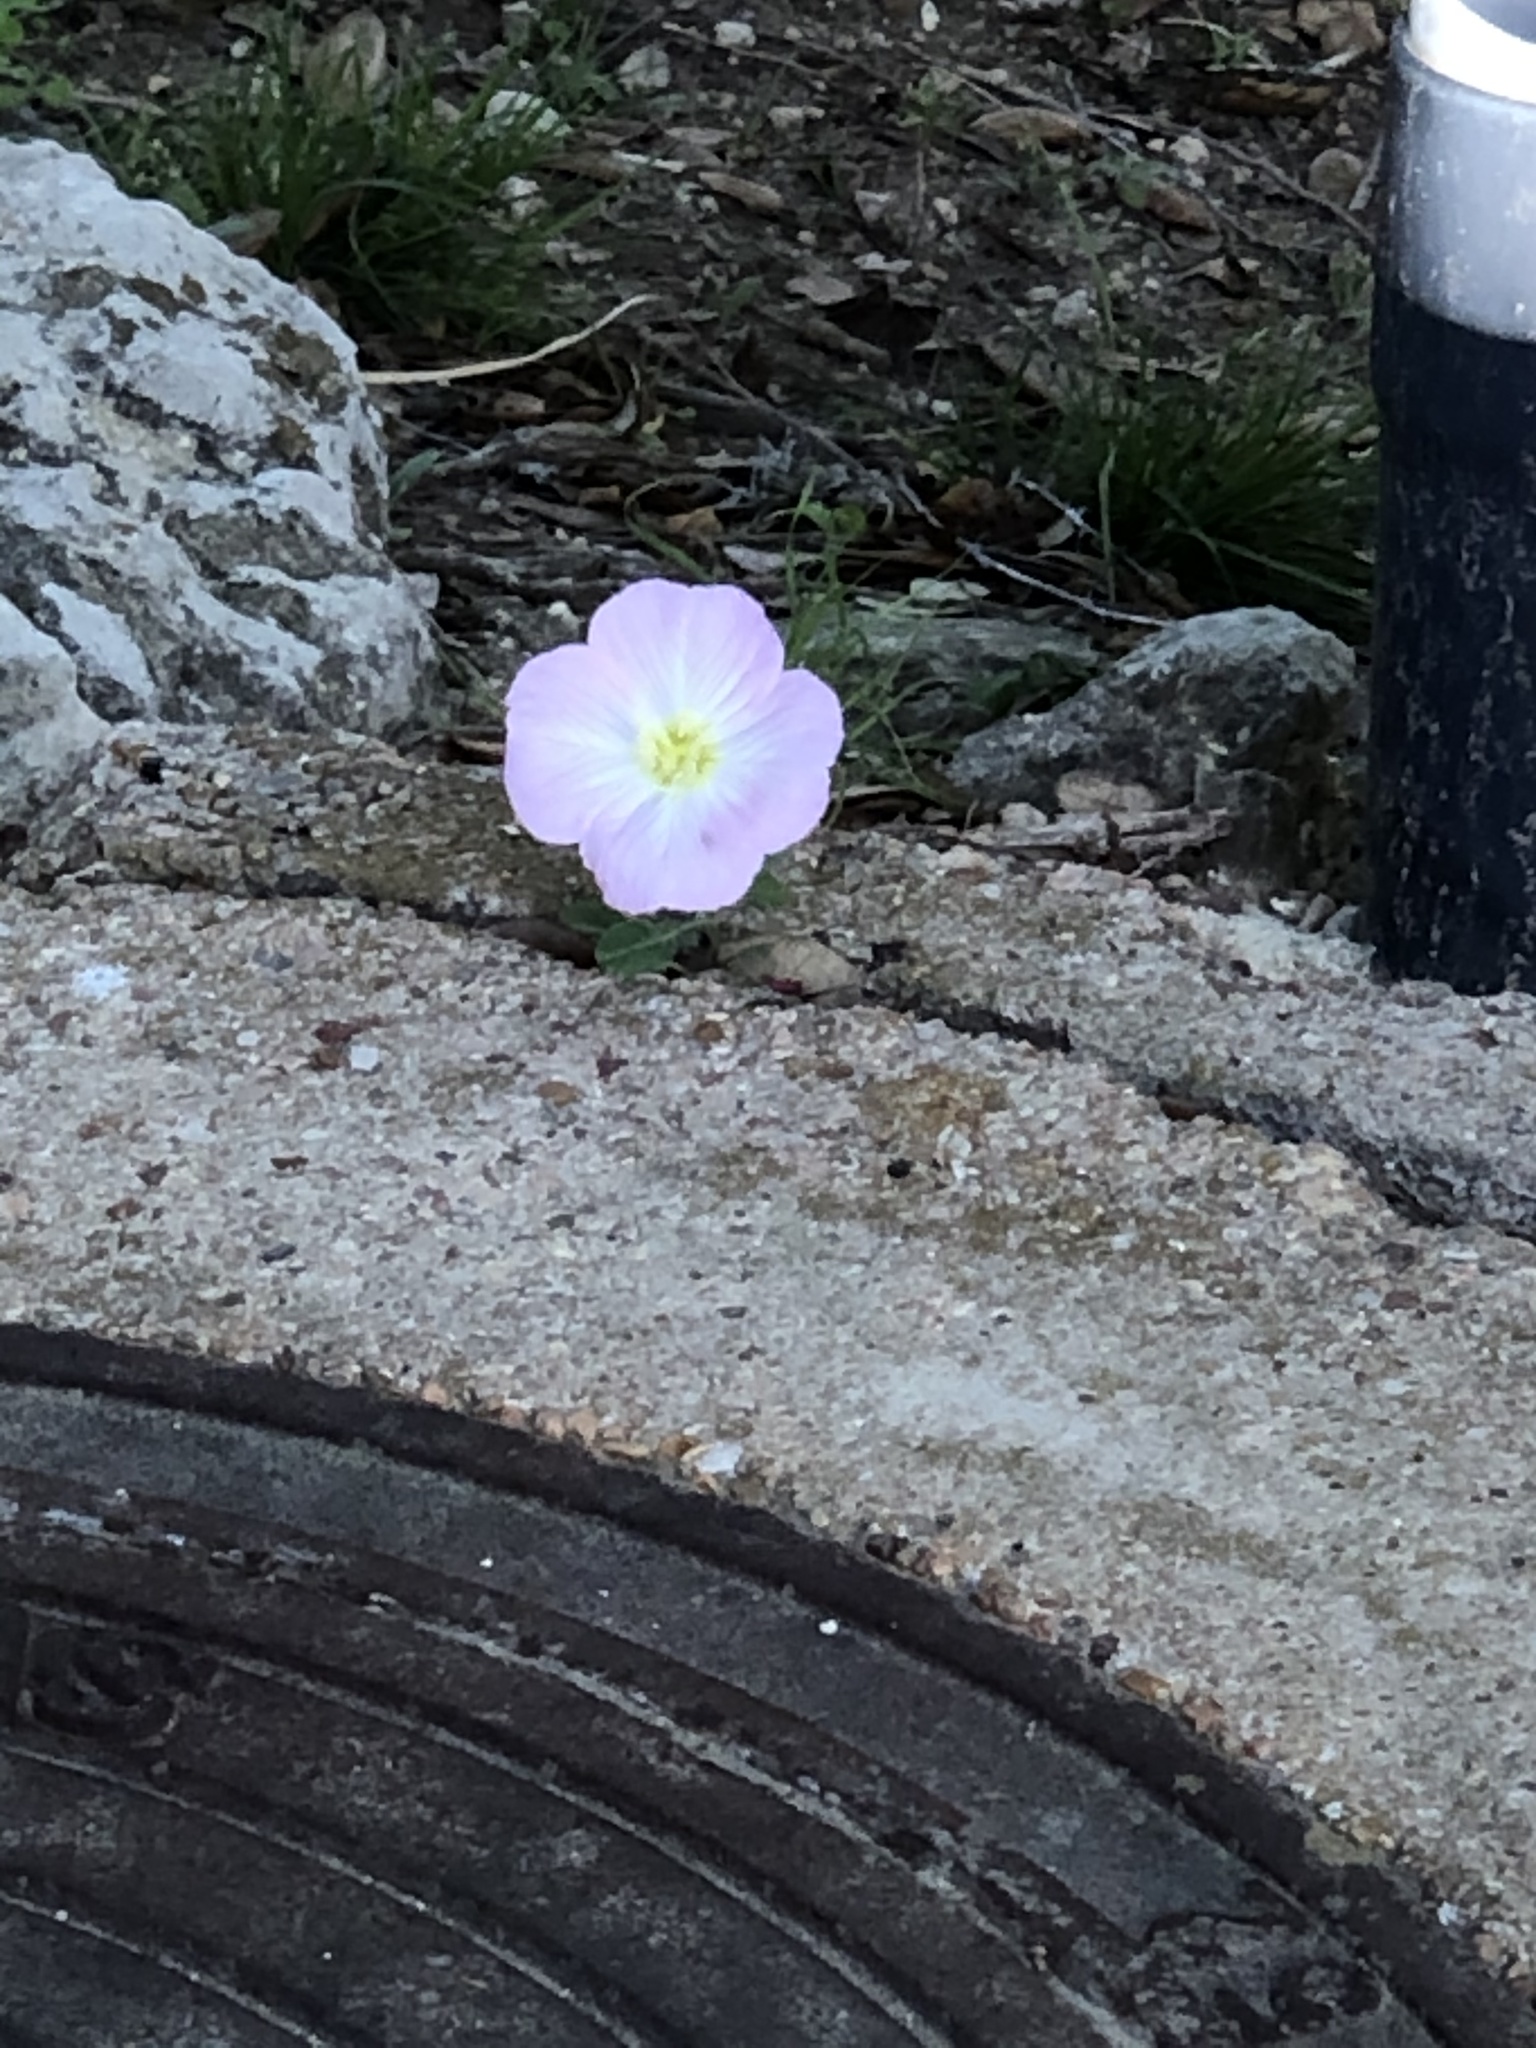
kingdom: Plantae
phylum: Tracheophyta
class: Magnoliopsida
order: Myrtales
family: Onagraceae
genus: Oenothera
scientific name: Oenothera speciosa
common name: White evening-primrose
